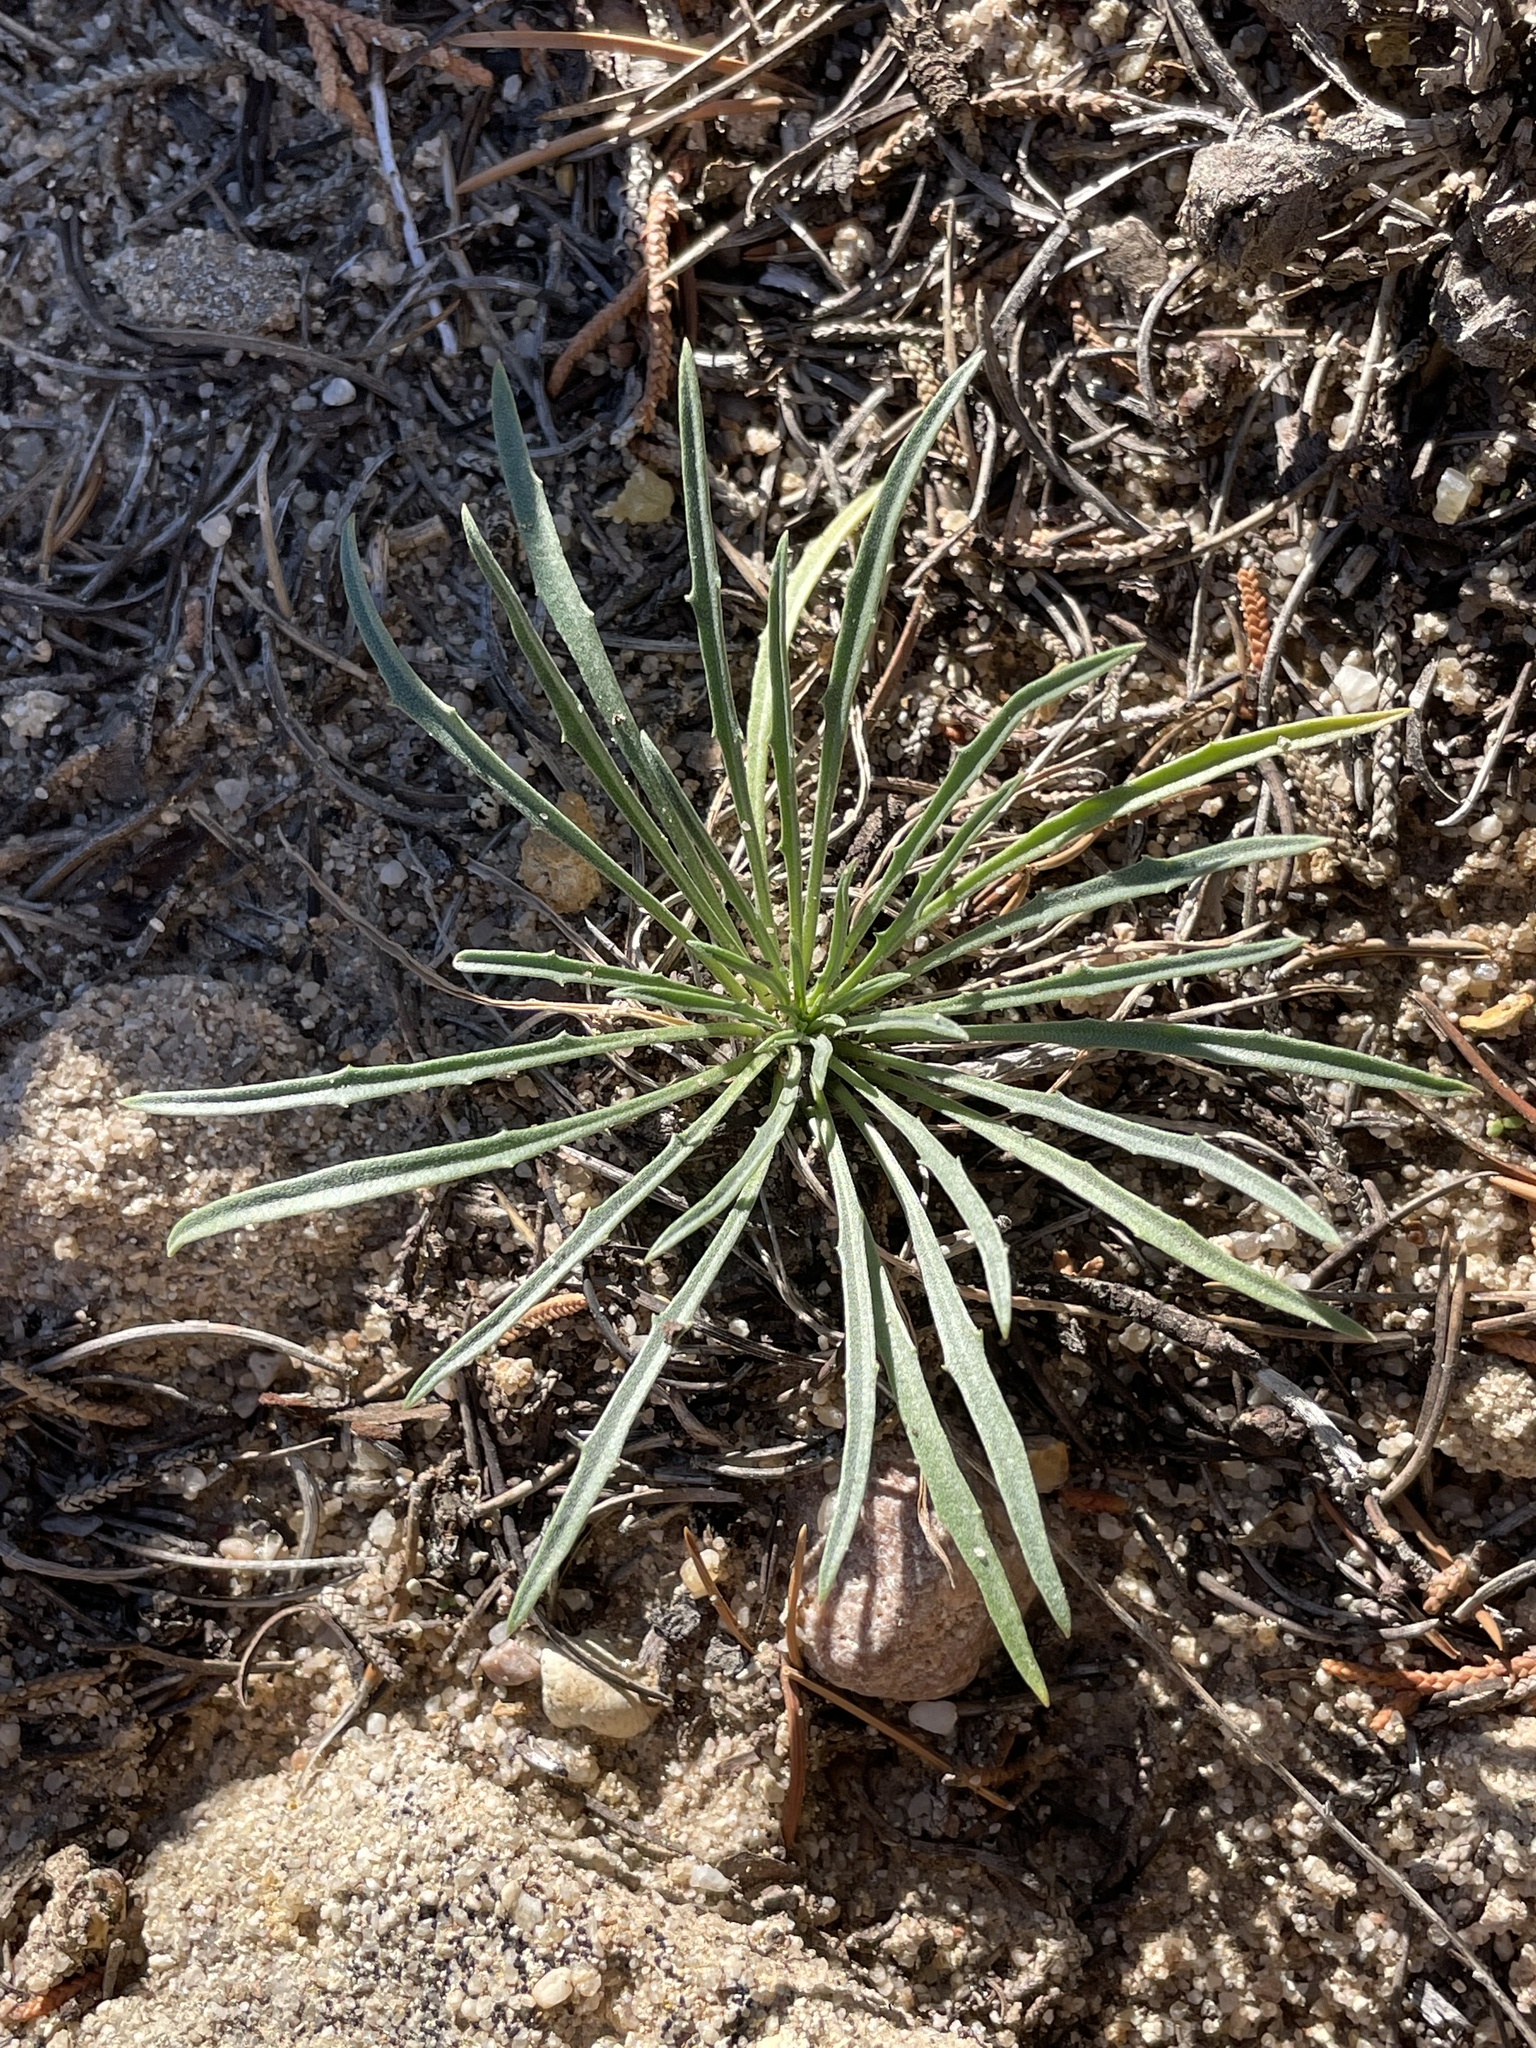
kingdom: Plantae
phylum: Tracheophyta
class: Magnoliopsida
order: Brassicales
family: Brassicaceae
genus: Erysimum
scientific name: Erysimum capitatum
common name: Western wallflower
